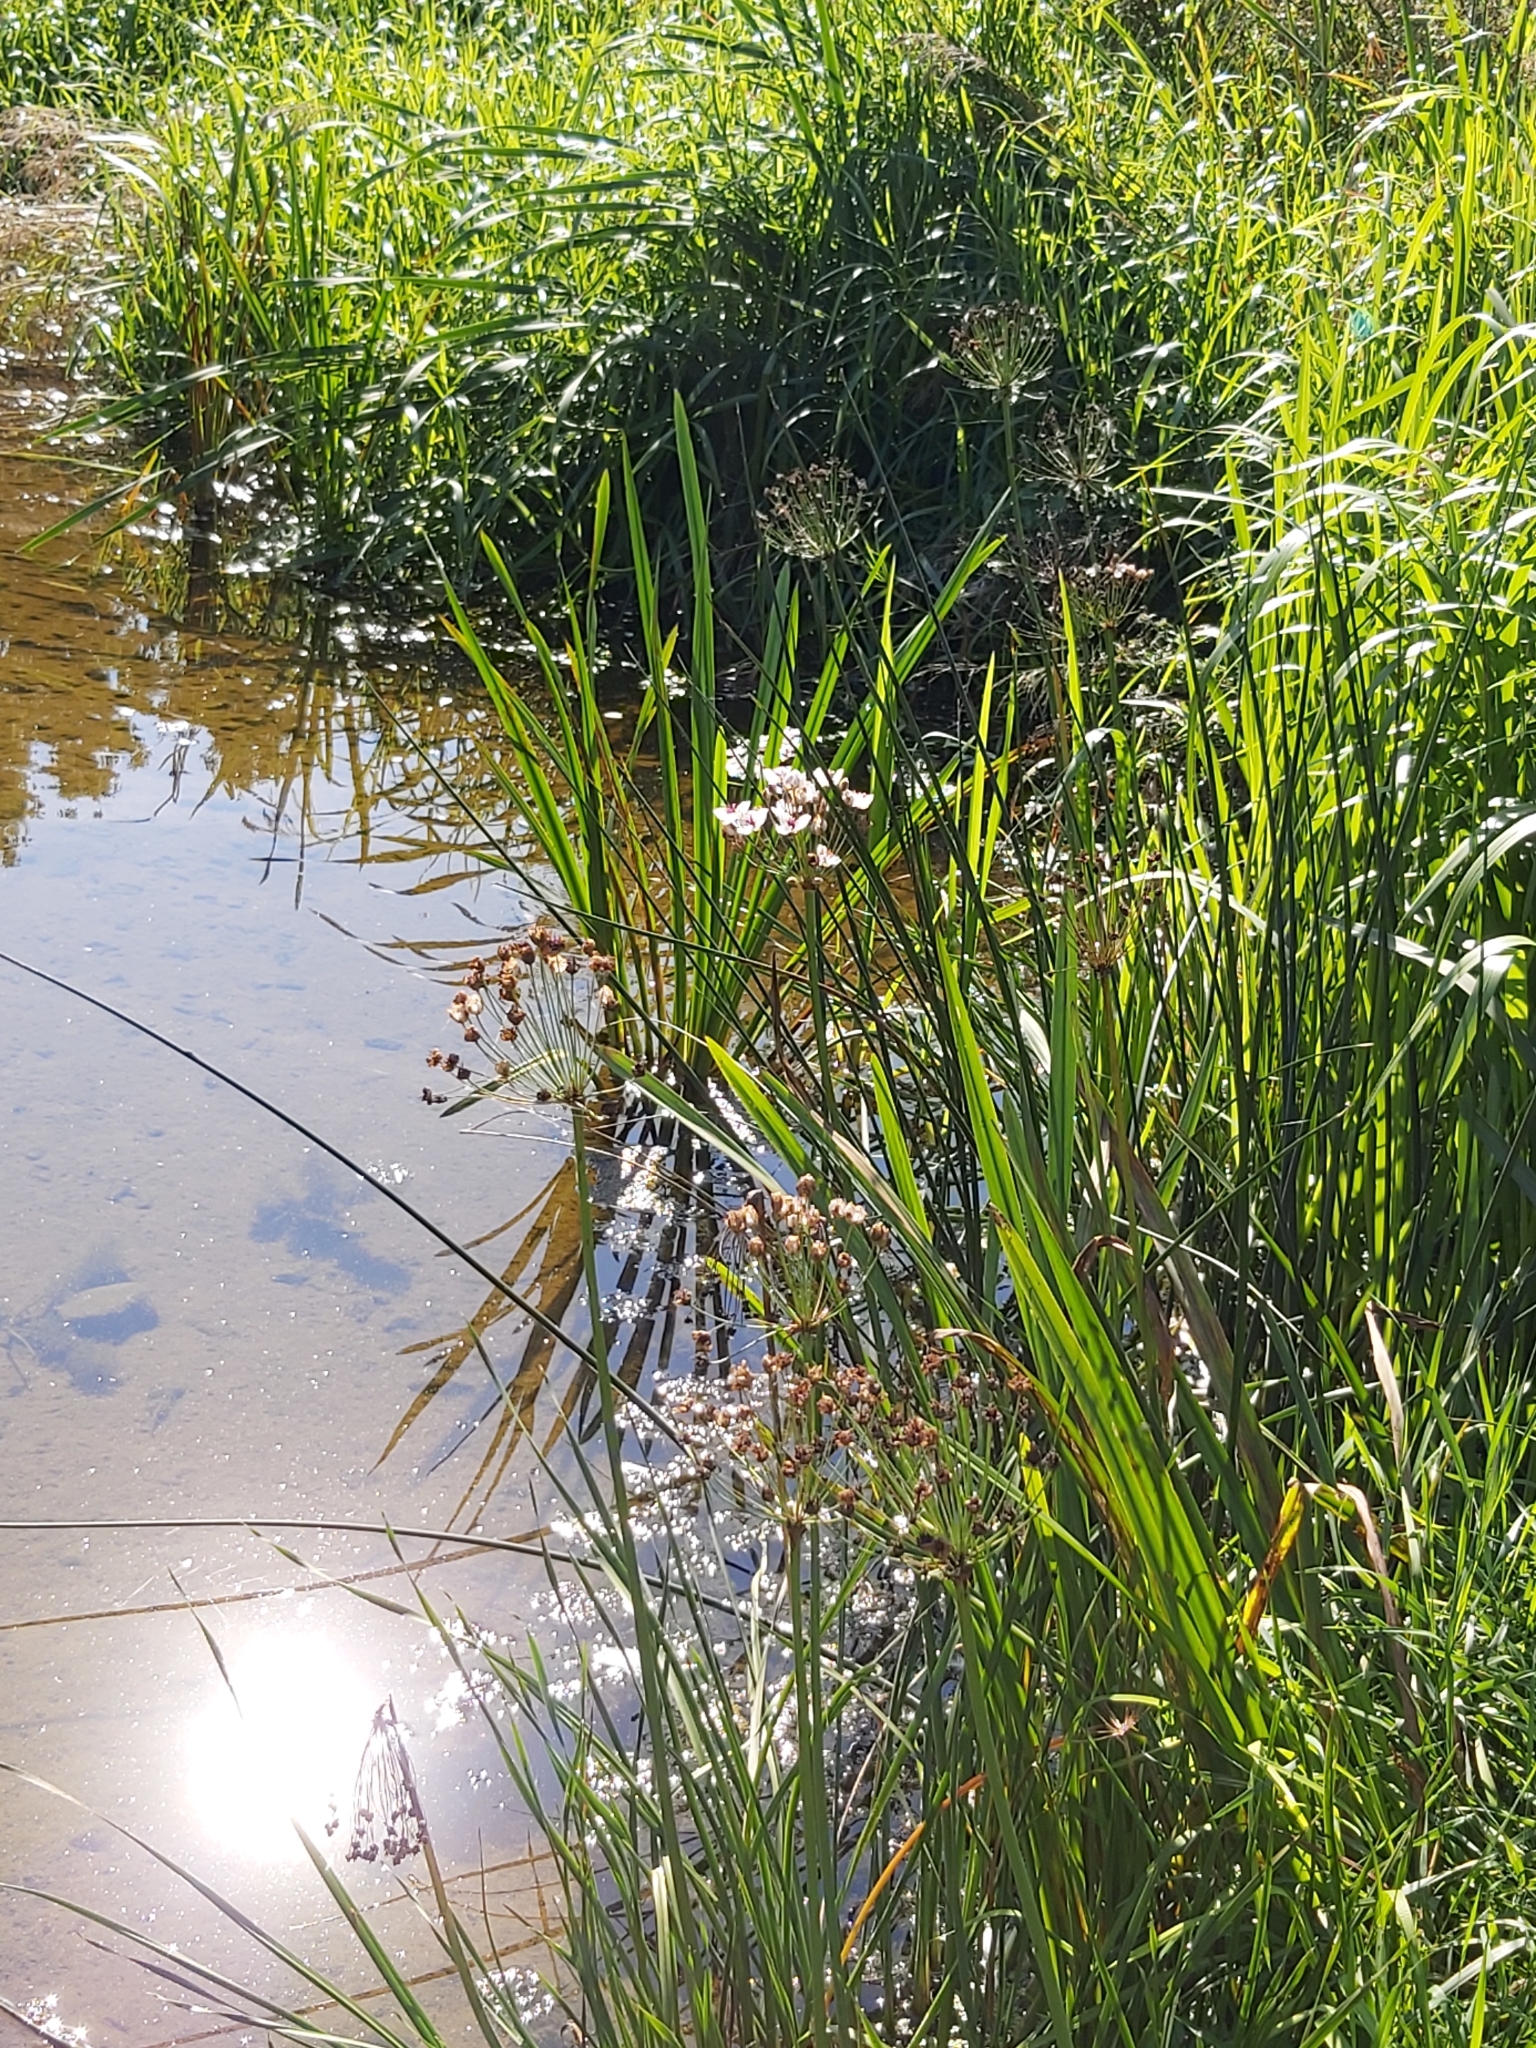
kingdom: Plantae
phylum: Tracheophyta
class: Liliopsida
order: Alismatales
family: Butomaceae
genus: Butomus
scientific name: Butomus umbellatus
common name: Flowering-rush
